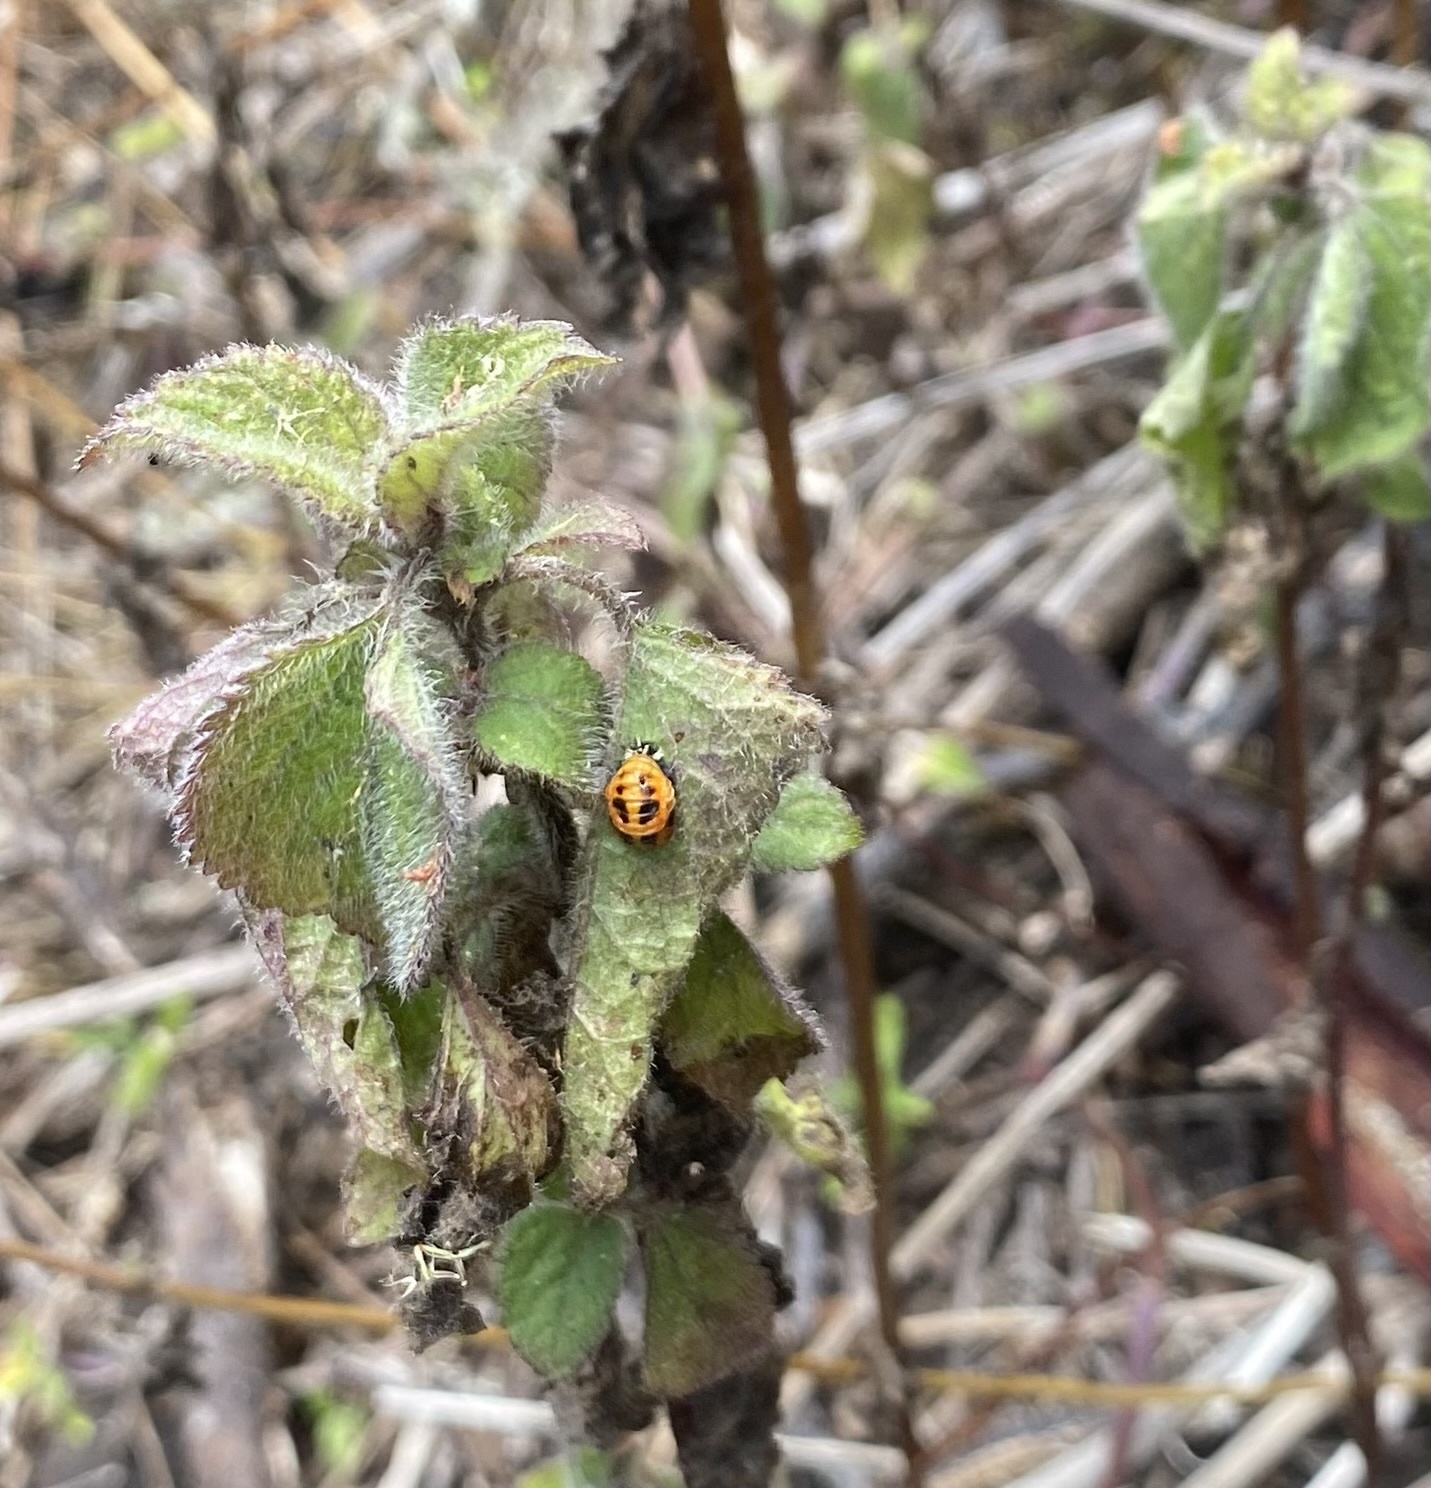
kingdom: Animalia
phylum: Arthropoda
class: Insecta
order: Coleoptera
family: Coccinellidae
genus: Harmonia
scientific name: Harmonia axyridis
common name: Harlequin ladybird
